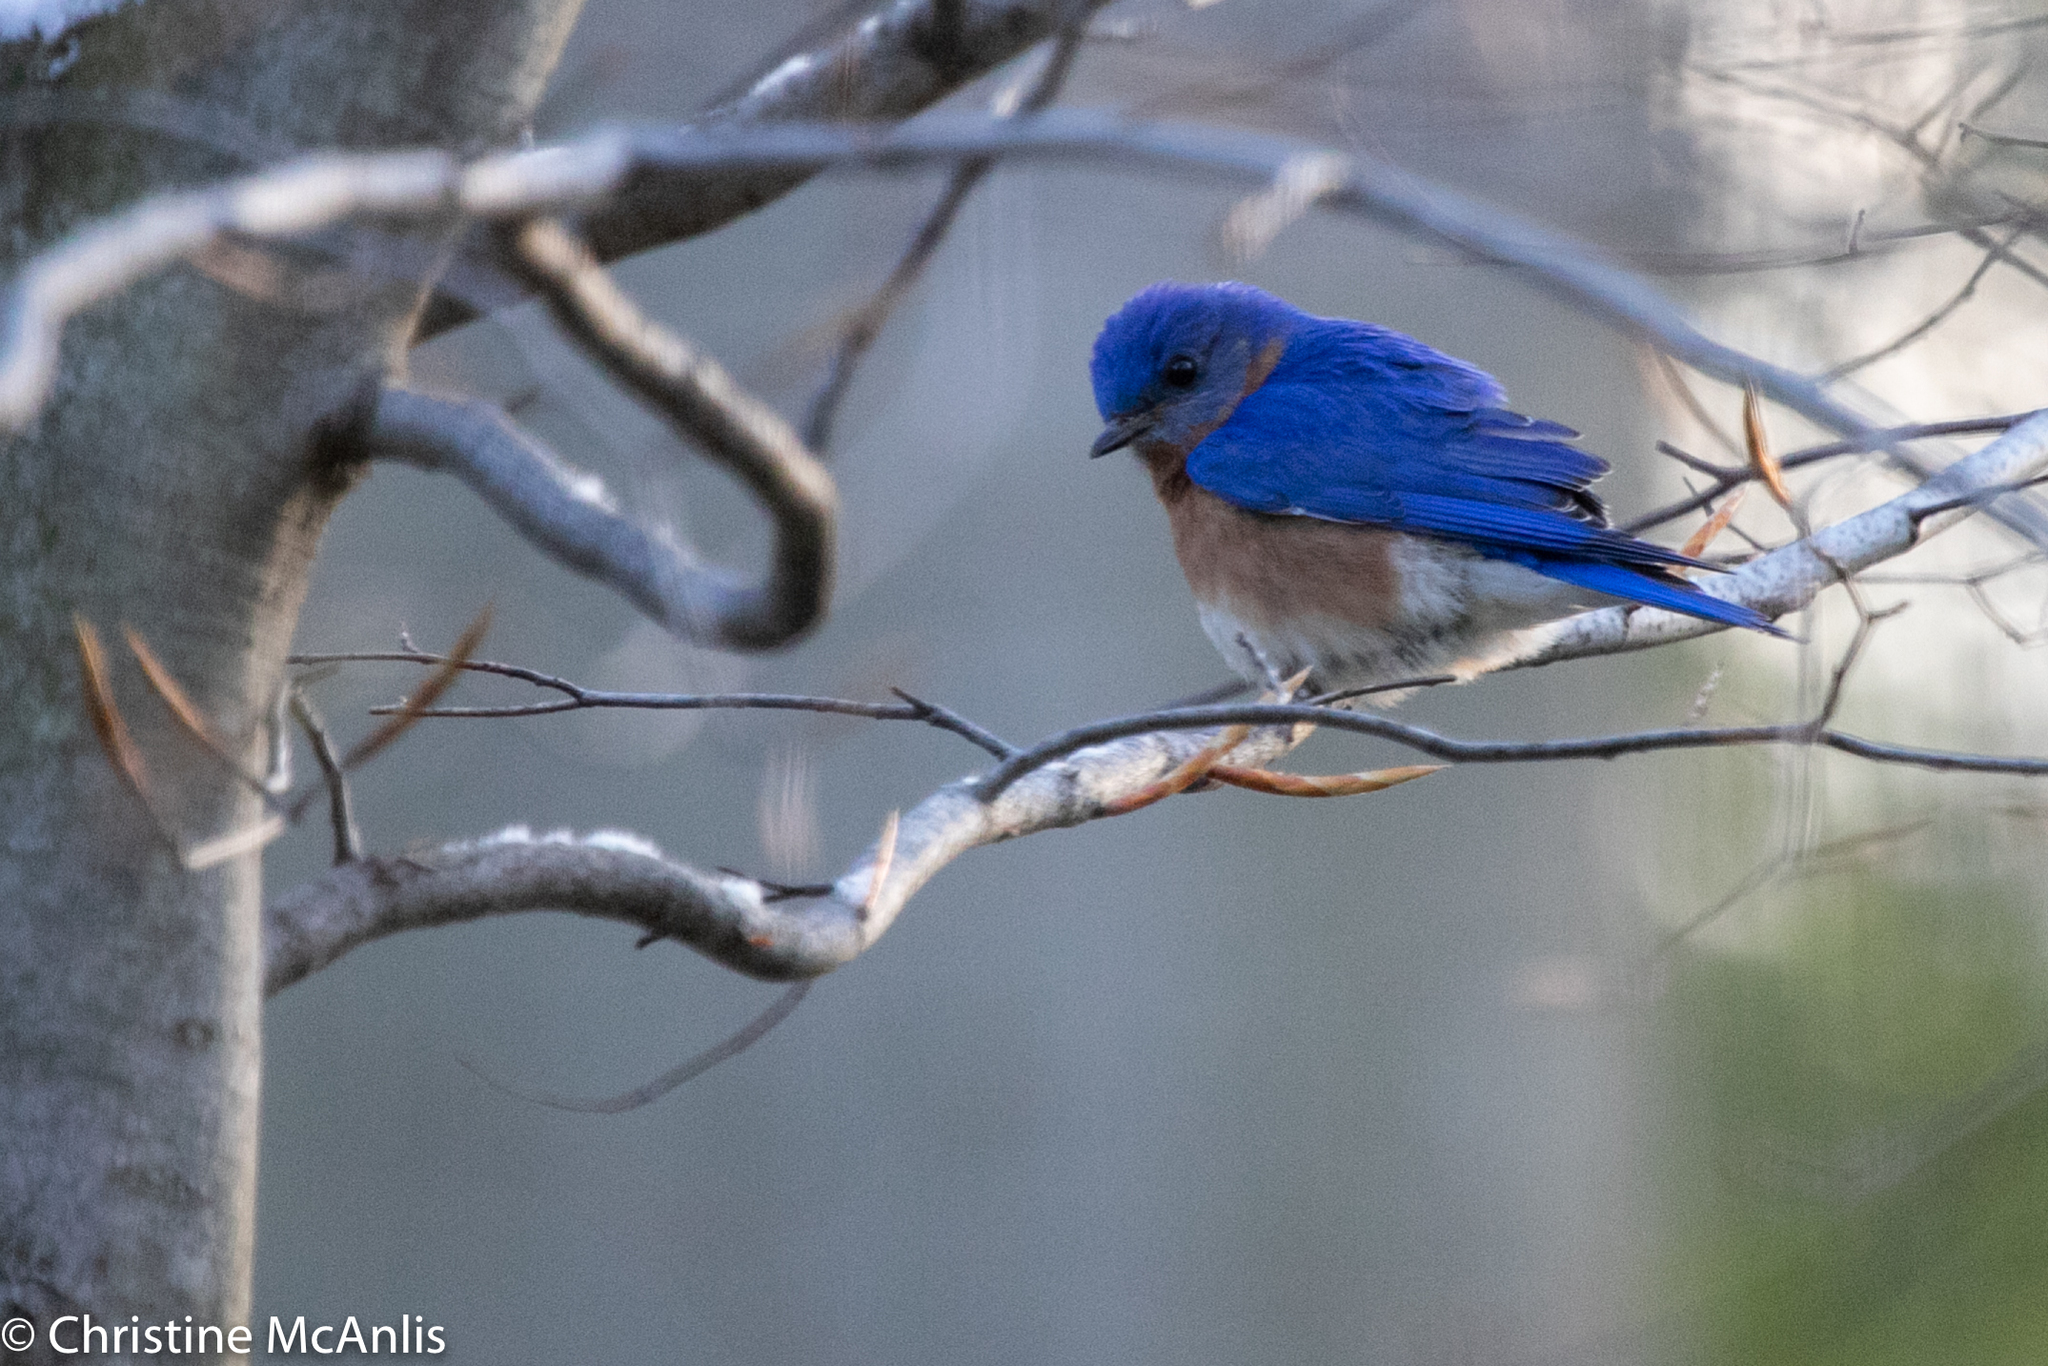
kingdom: Animalia
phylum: Chordata
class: Aves
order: Passeriformes
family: Turdidae
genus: Sialia
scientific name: Sialia sialis
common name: Eastern bluebird
